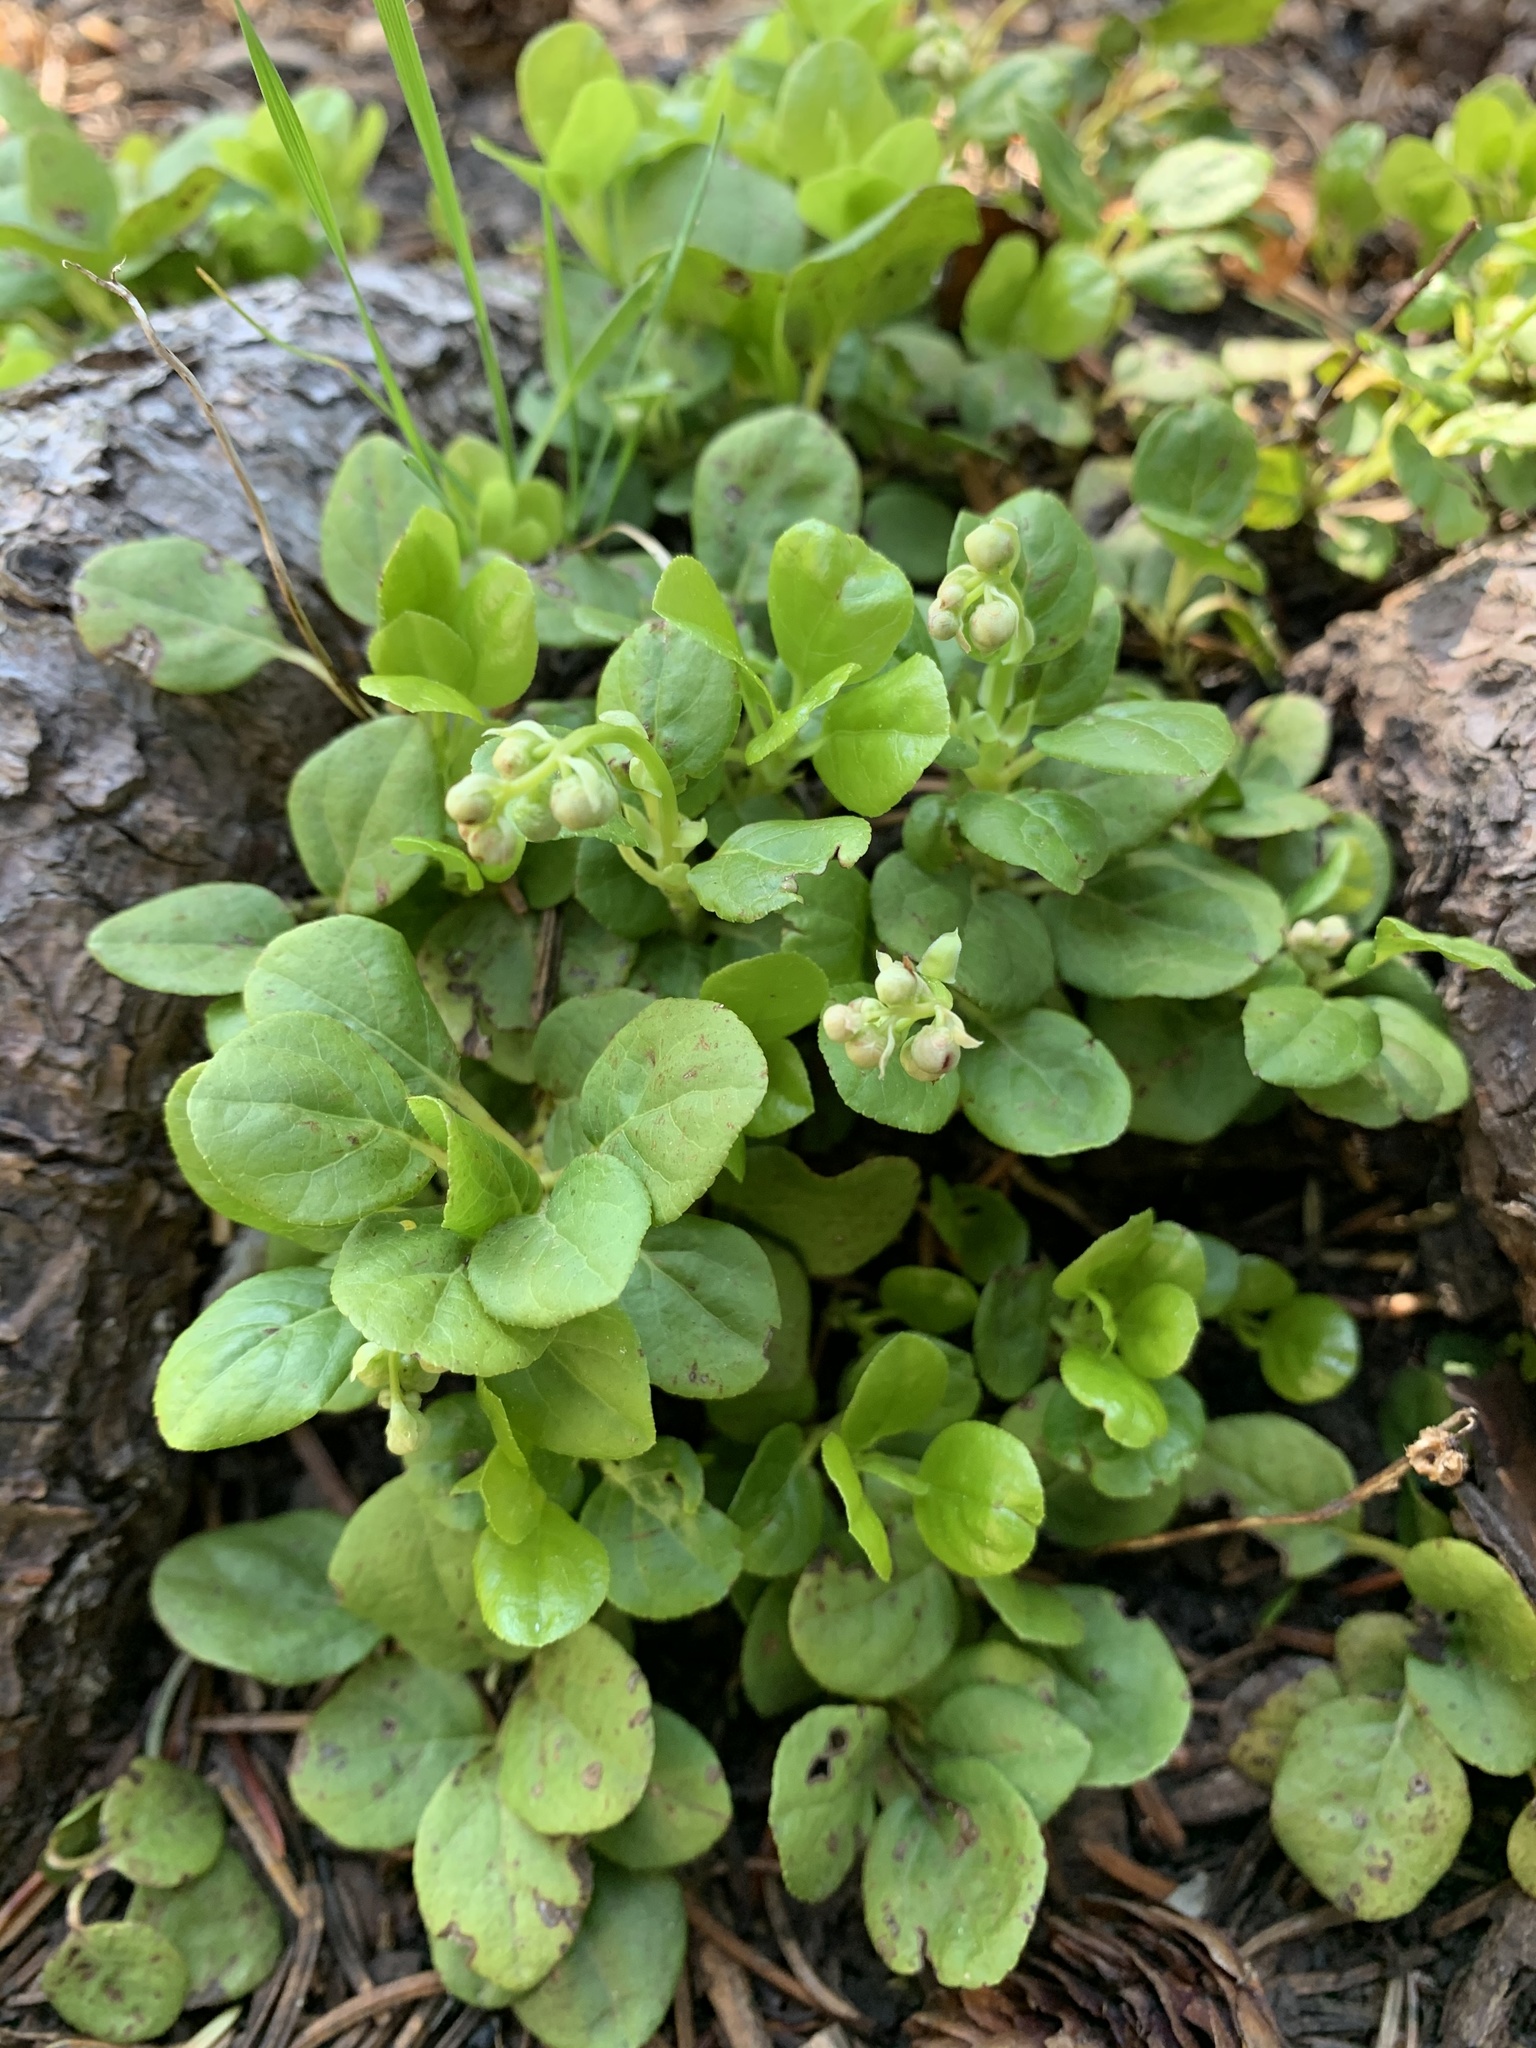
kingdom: Plantae
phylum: Tracheophyta
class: Magnoliopsida
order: Ericales
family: Ericaceae
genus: Orthilia
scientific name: Orthilia secunda
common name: One-sided orthilia
